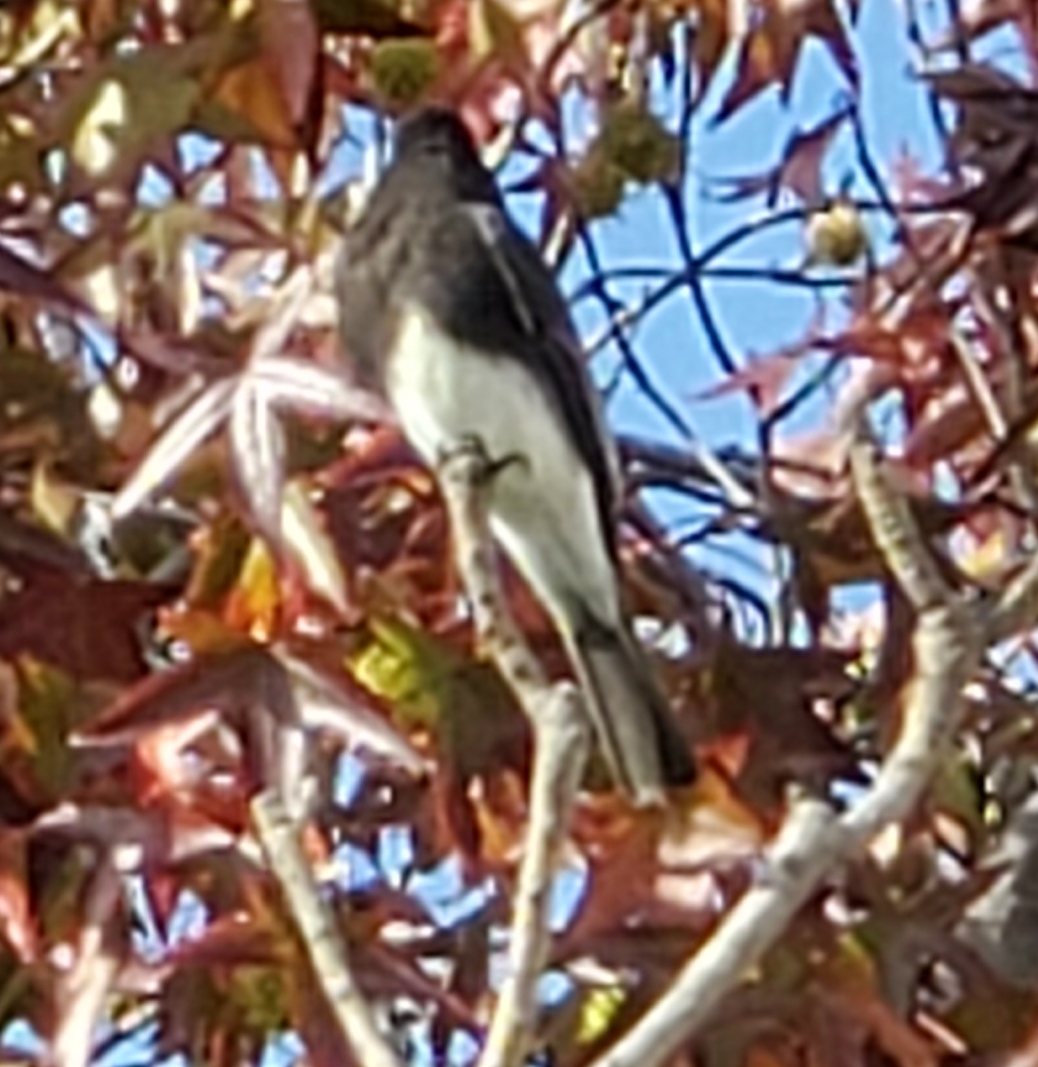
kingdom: Animalia
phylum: Chordata
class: Aves
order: Passeriformes
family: Tyrannidae
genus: Sayornis
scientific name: Sayornis nigricans
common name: Black phoebe
